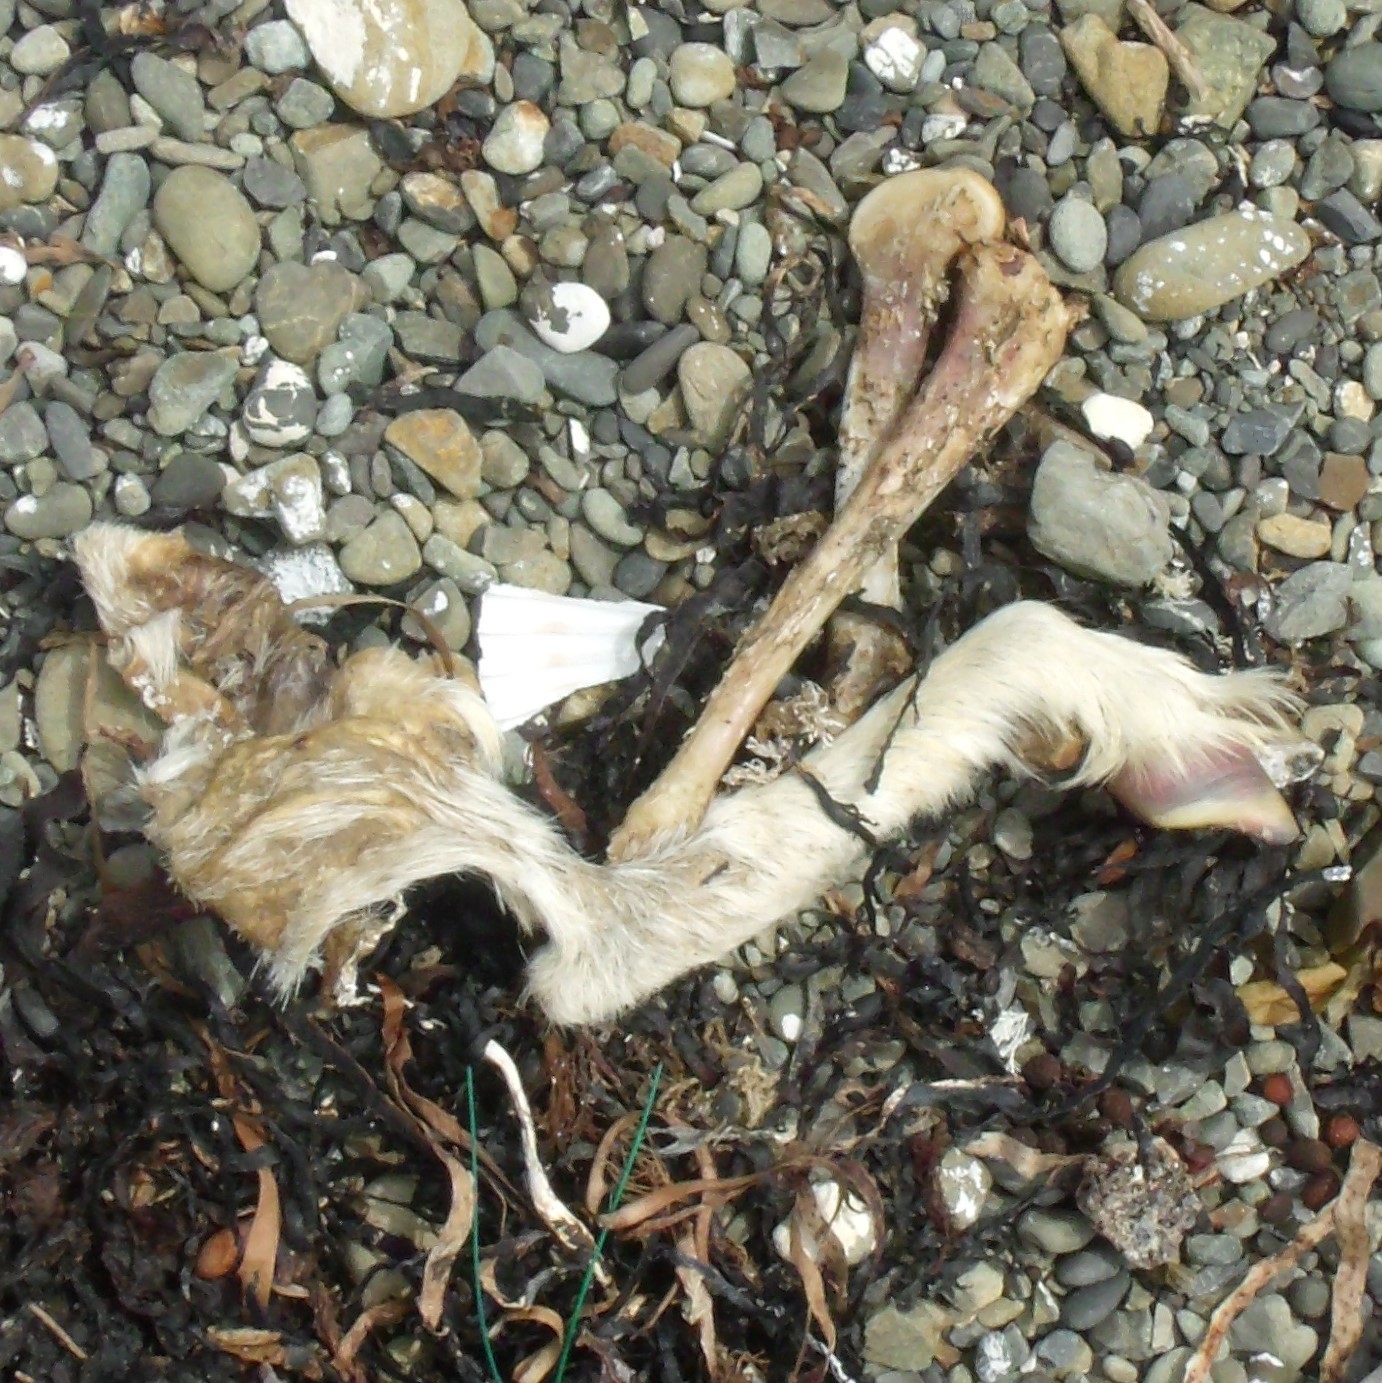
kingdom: Animalia
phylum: Chordata
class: Mammalia
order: Artiodactyla
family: Bovidae
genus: Capra
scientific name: Capra hircus
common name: Domestic goat
